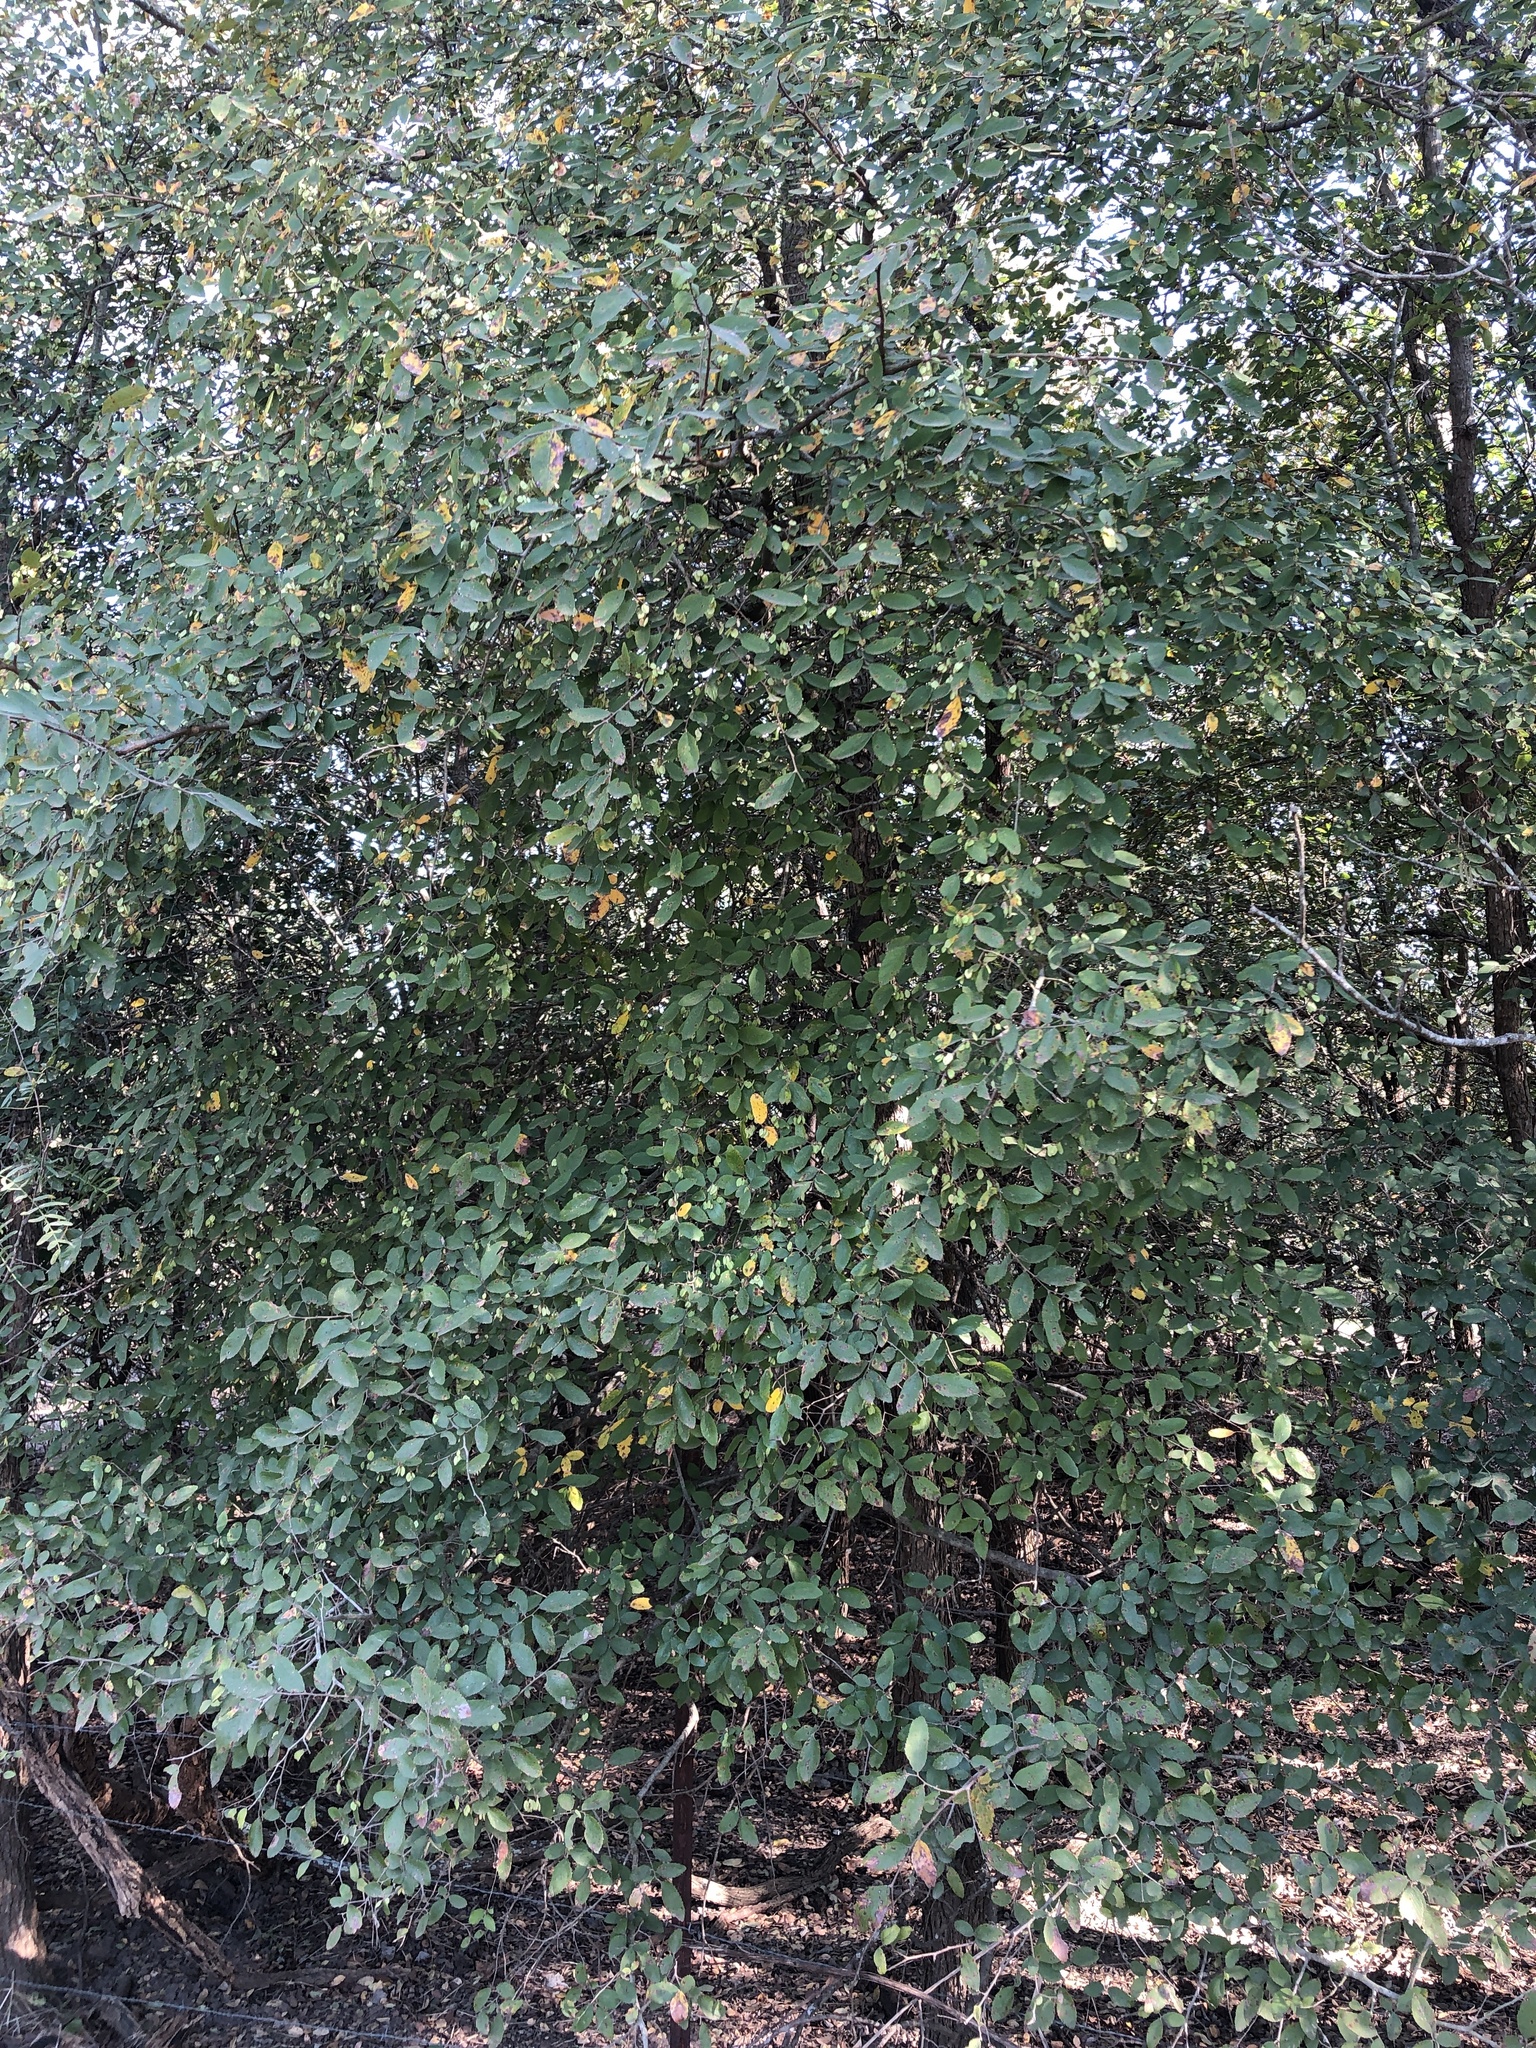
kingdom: Plantae
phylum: Tracheophyta
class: Magnoliopsida
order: Rosales
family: Ulmaceae
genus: Ulmus
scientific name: Ulmus crassifolia
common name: Basket elm
